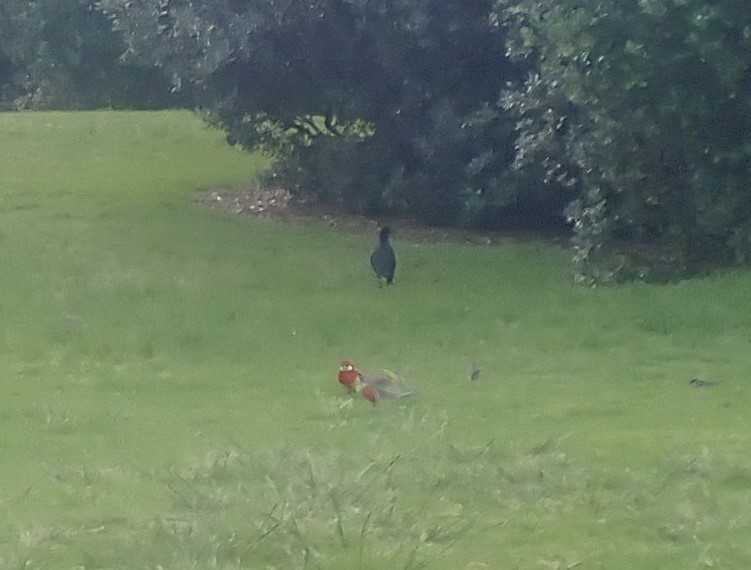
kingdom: Animalia
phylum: Chordata
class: Aves
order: Psittaciformes
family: Psittacidae
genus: Platycercus
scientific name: Platycercus eximius
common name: Eastern rosella
